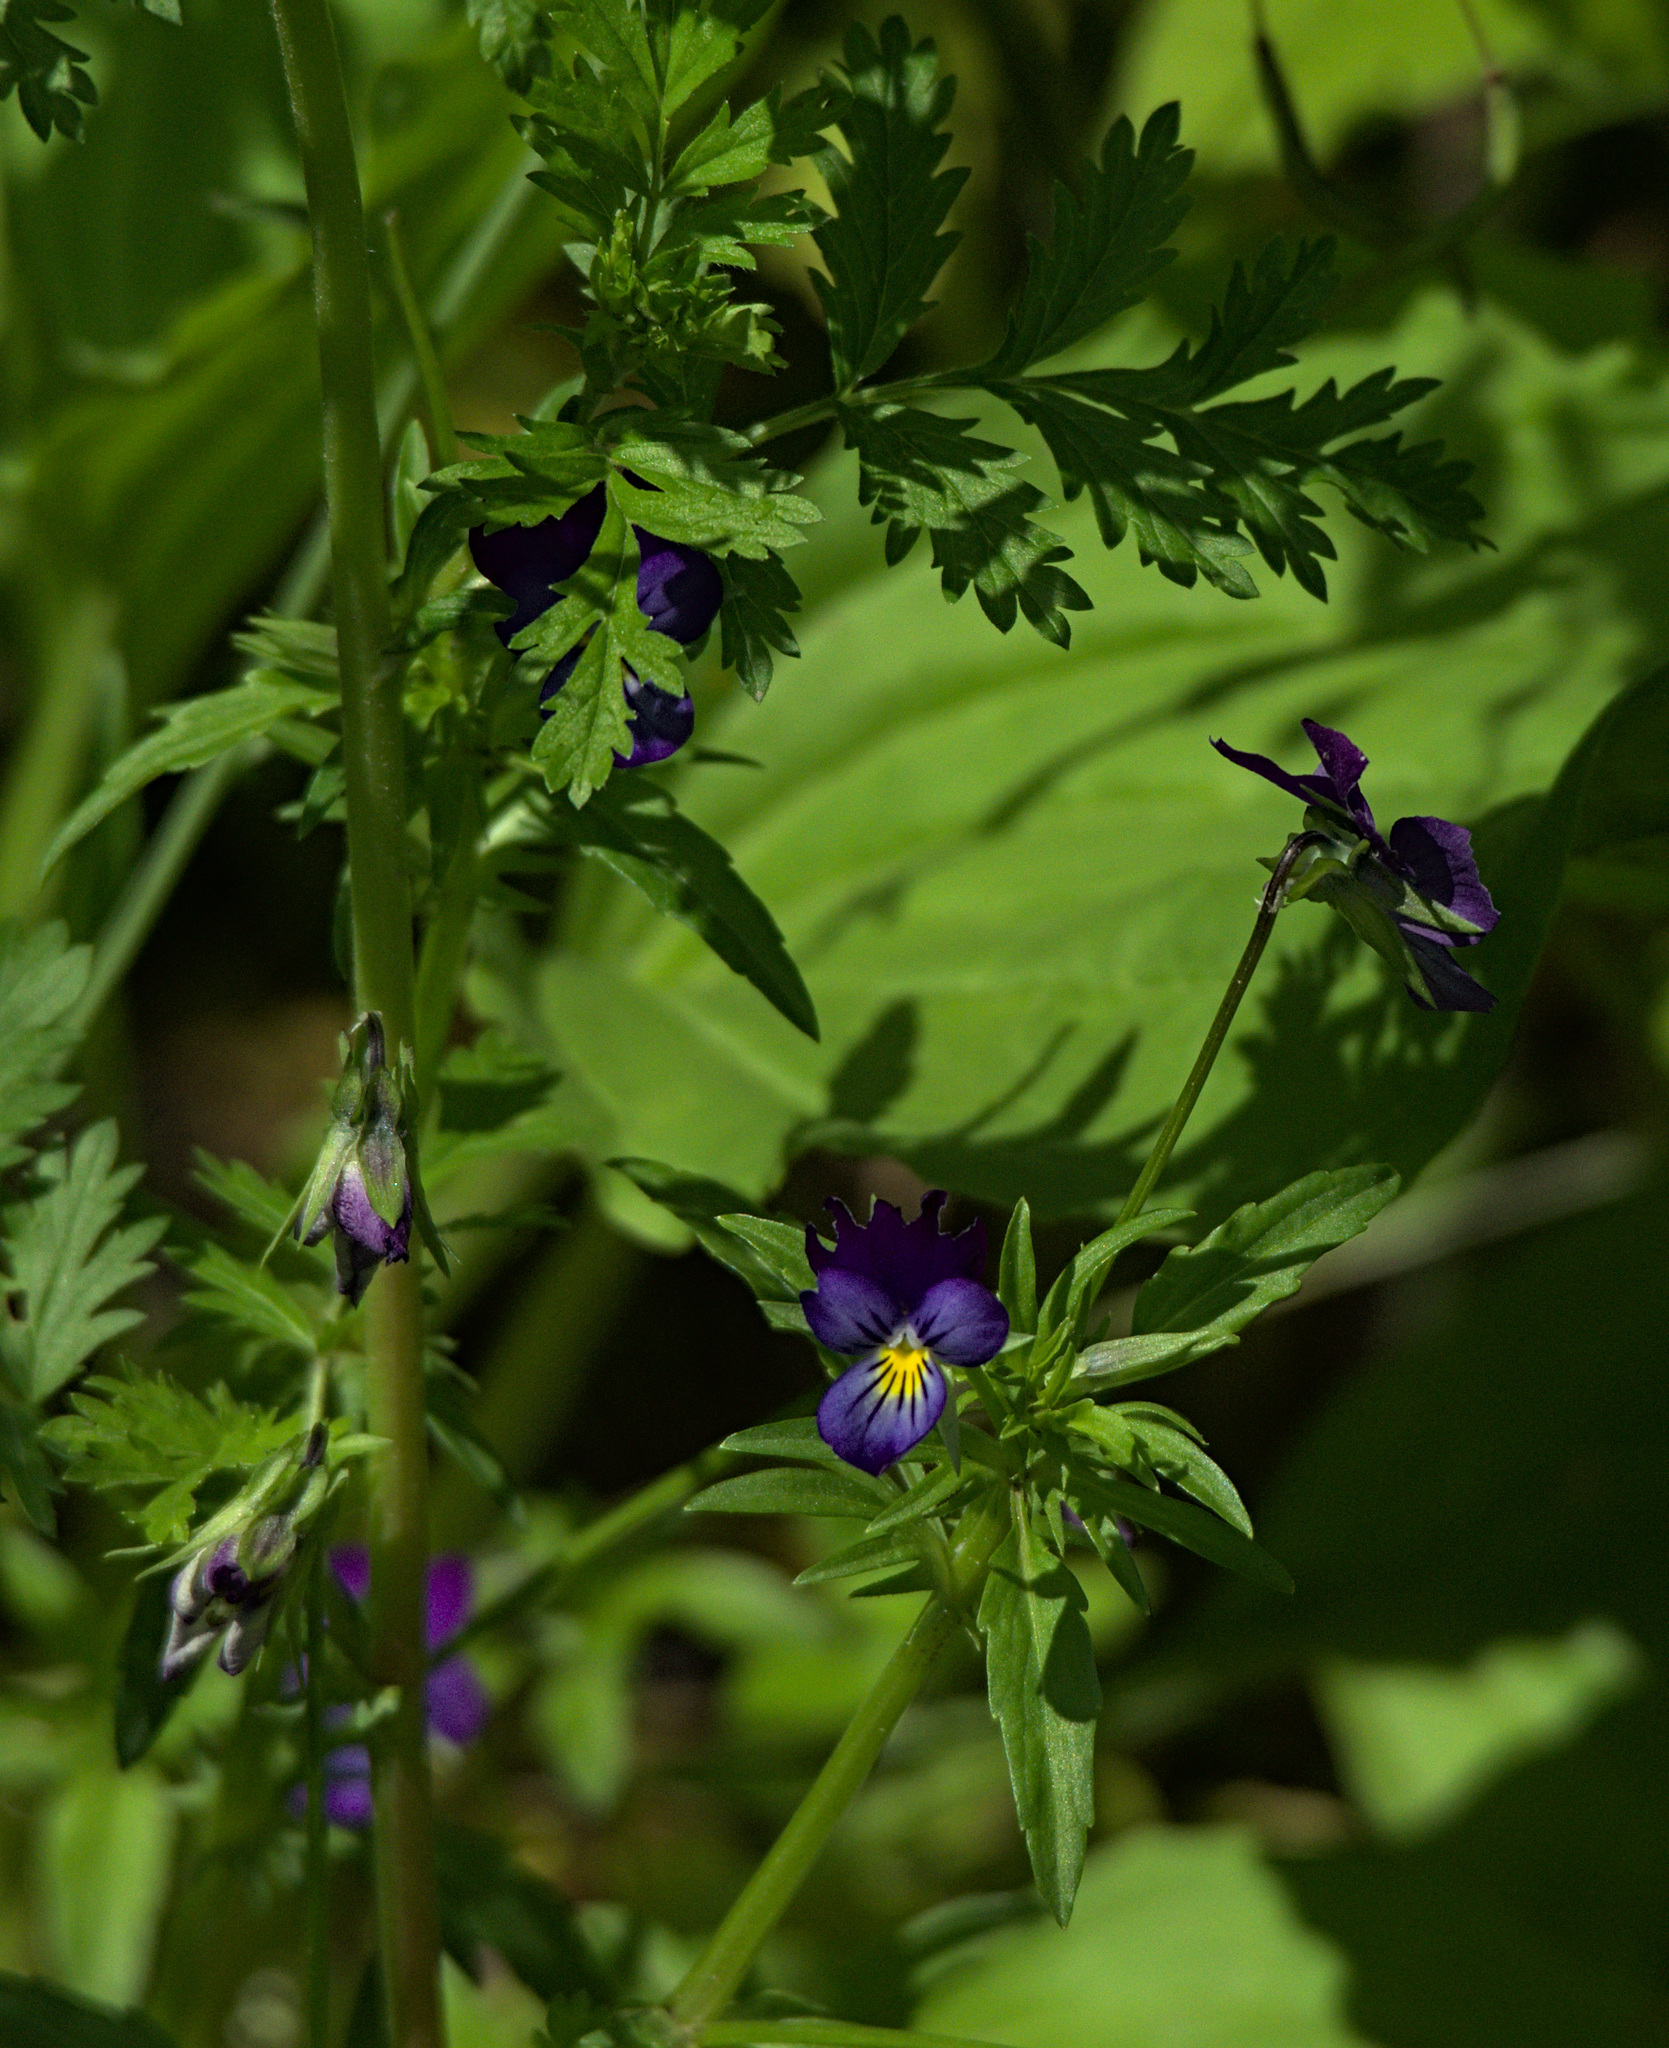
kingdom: Plantae
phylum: Tracheophyta
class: Magnoliopsida
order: Malpighiales
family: Violaceae
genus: Viola
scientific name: Viola tricolor
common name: Pansy
